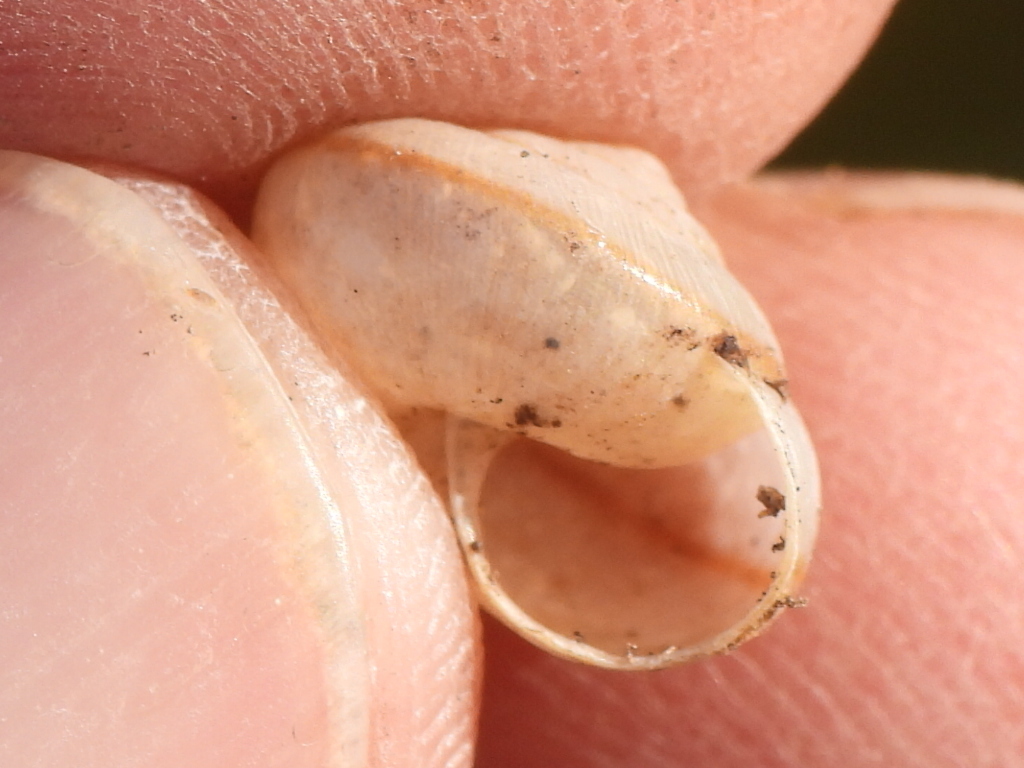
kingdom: Animalia
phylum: Mollusca
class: Gastropoda
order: Stylommatophora
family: Camaenidae
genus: Bradybaena
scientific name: Bradybaena similaris
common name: Asian trampsnail
